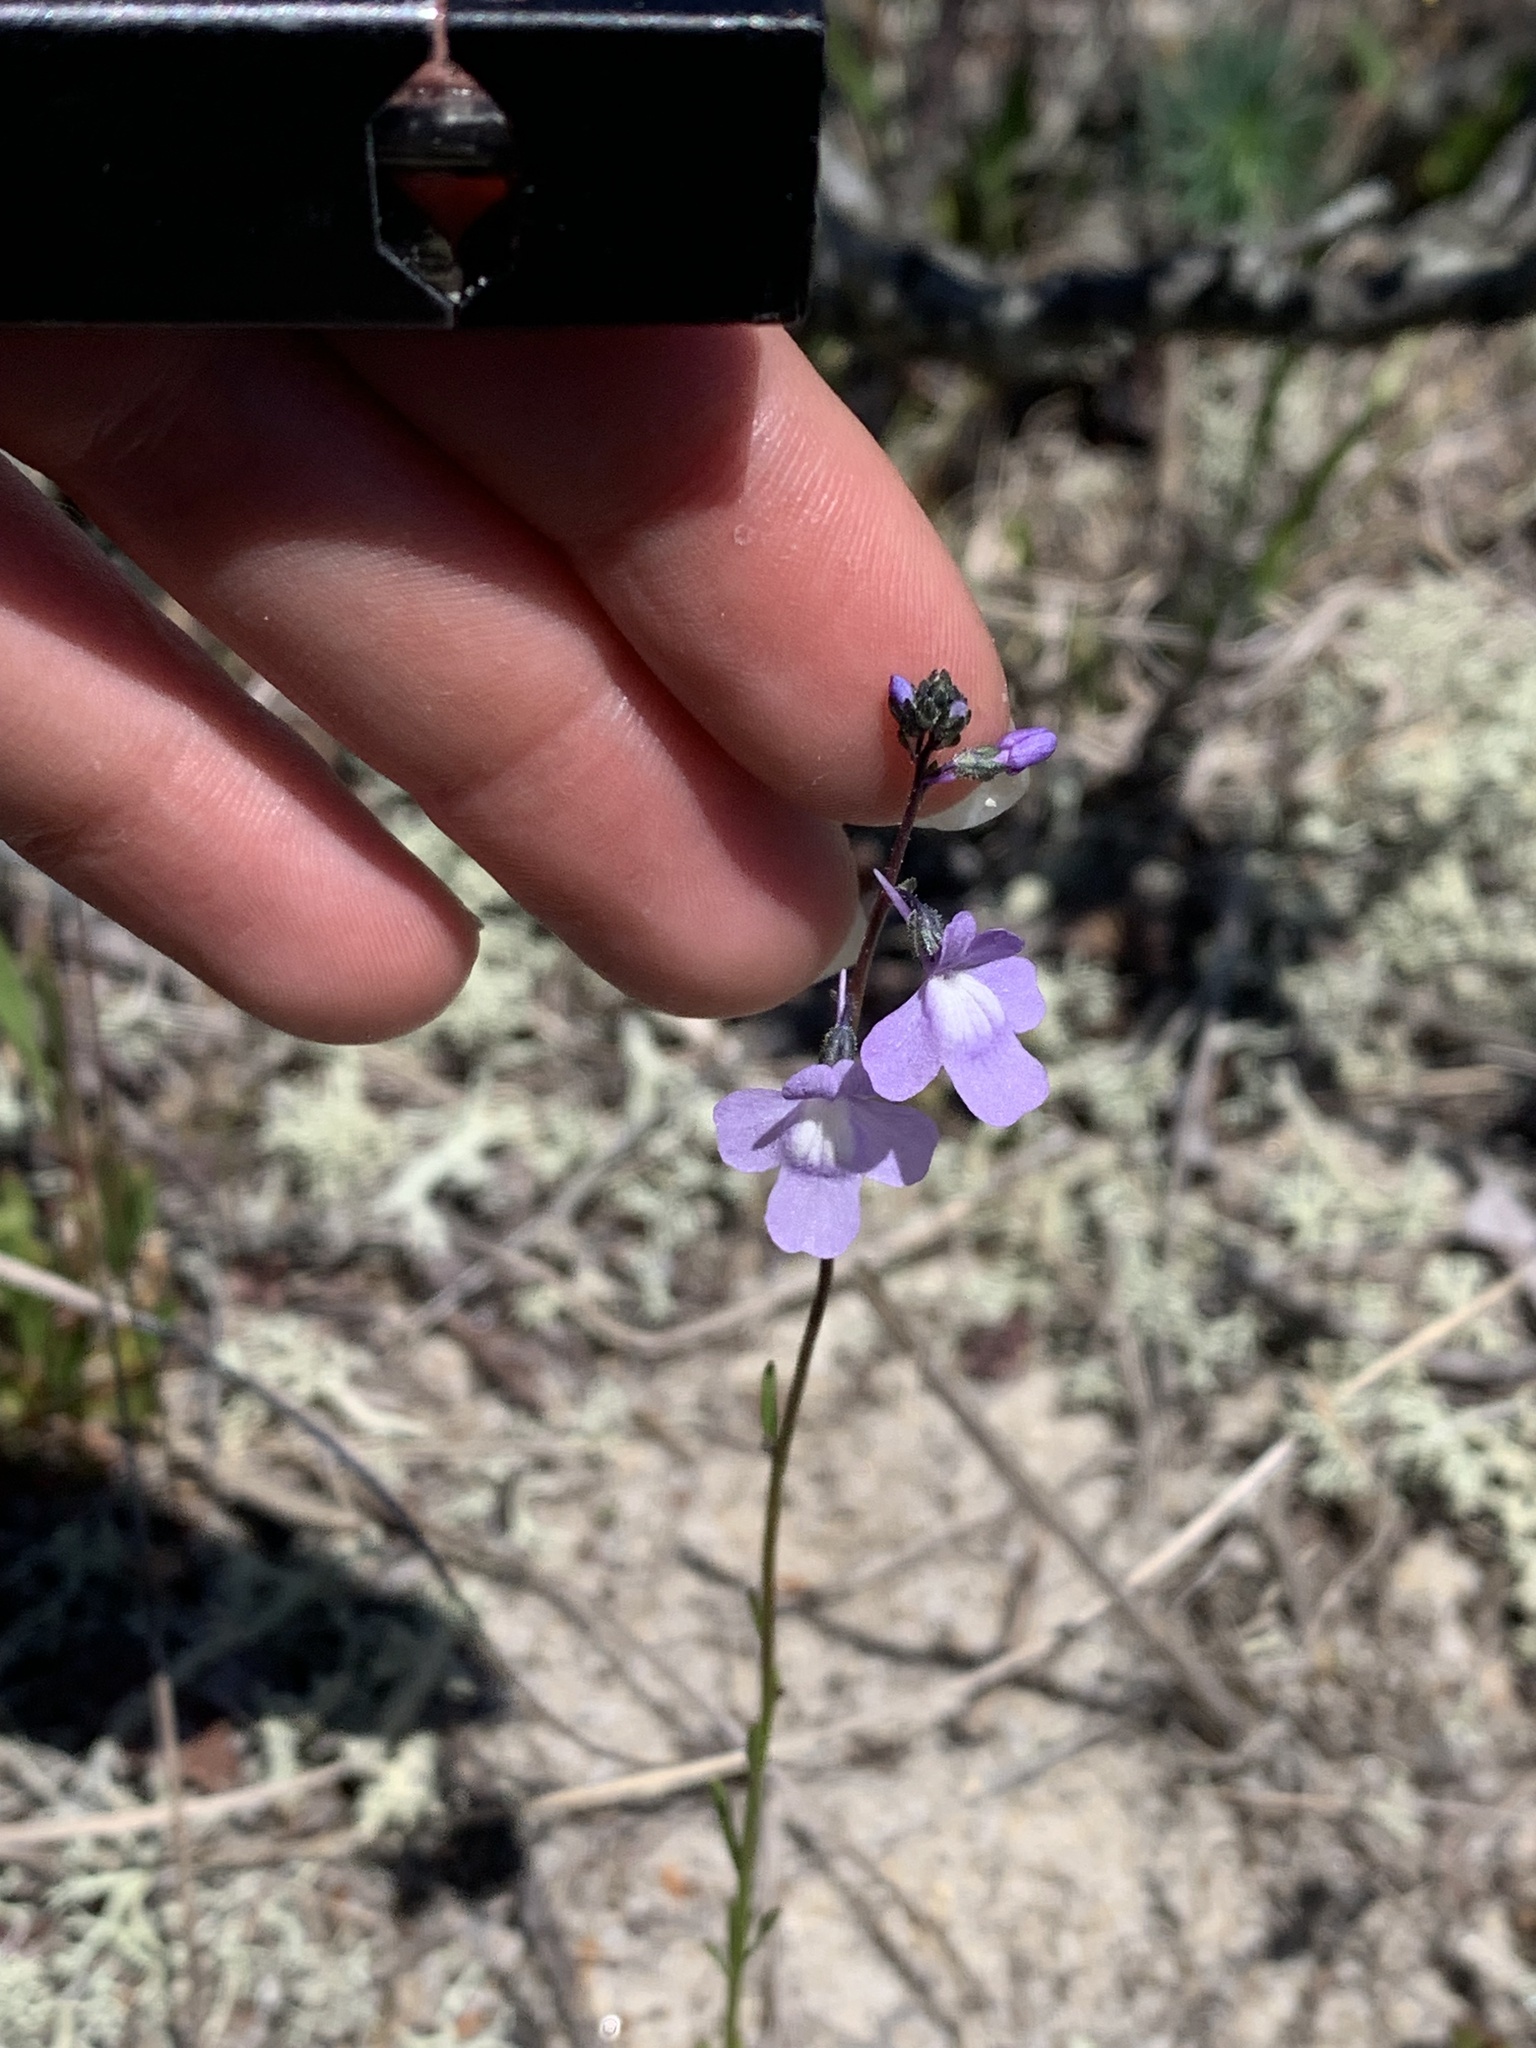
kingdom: Plantae
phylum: Tracheophyta
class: Magnoliopsida
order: Lamiales
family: Plantaginaceae
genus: Nuttallanthus
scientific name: Nuttallanthus canadensis
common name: Blue toadflax
